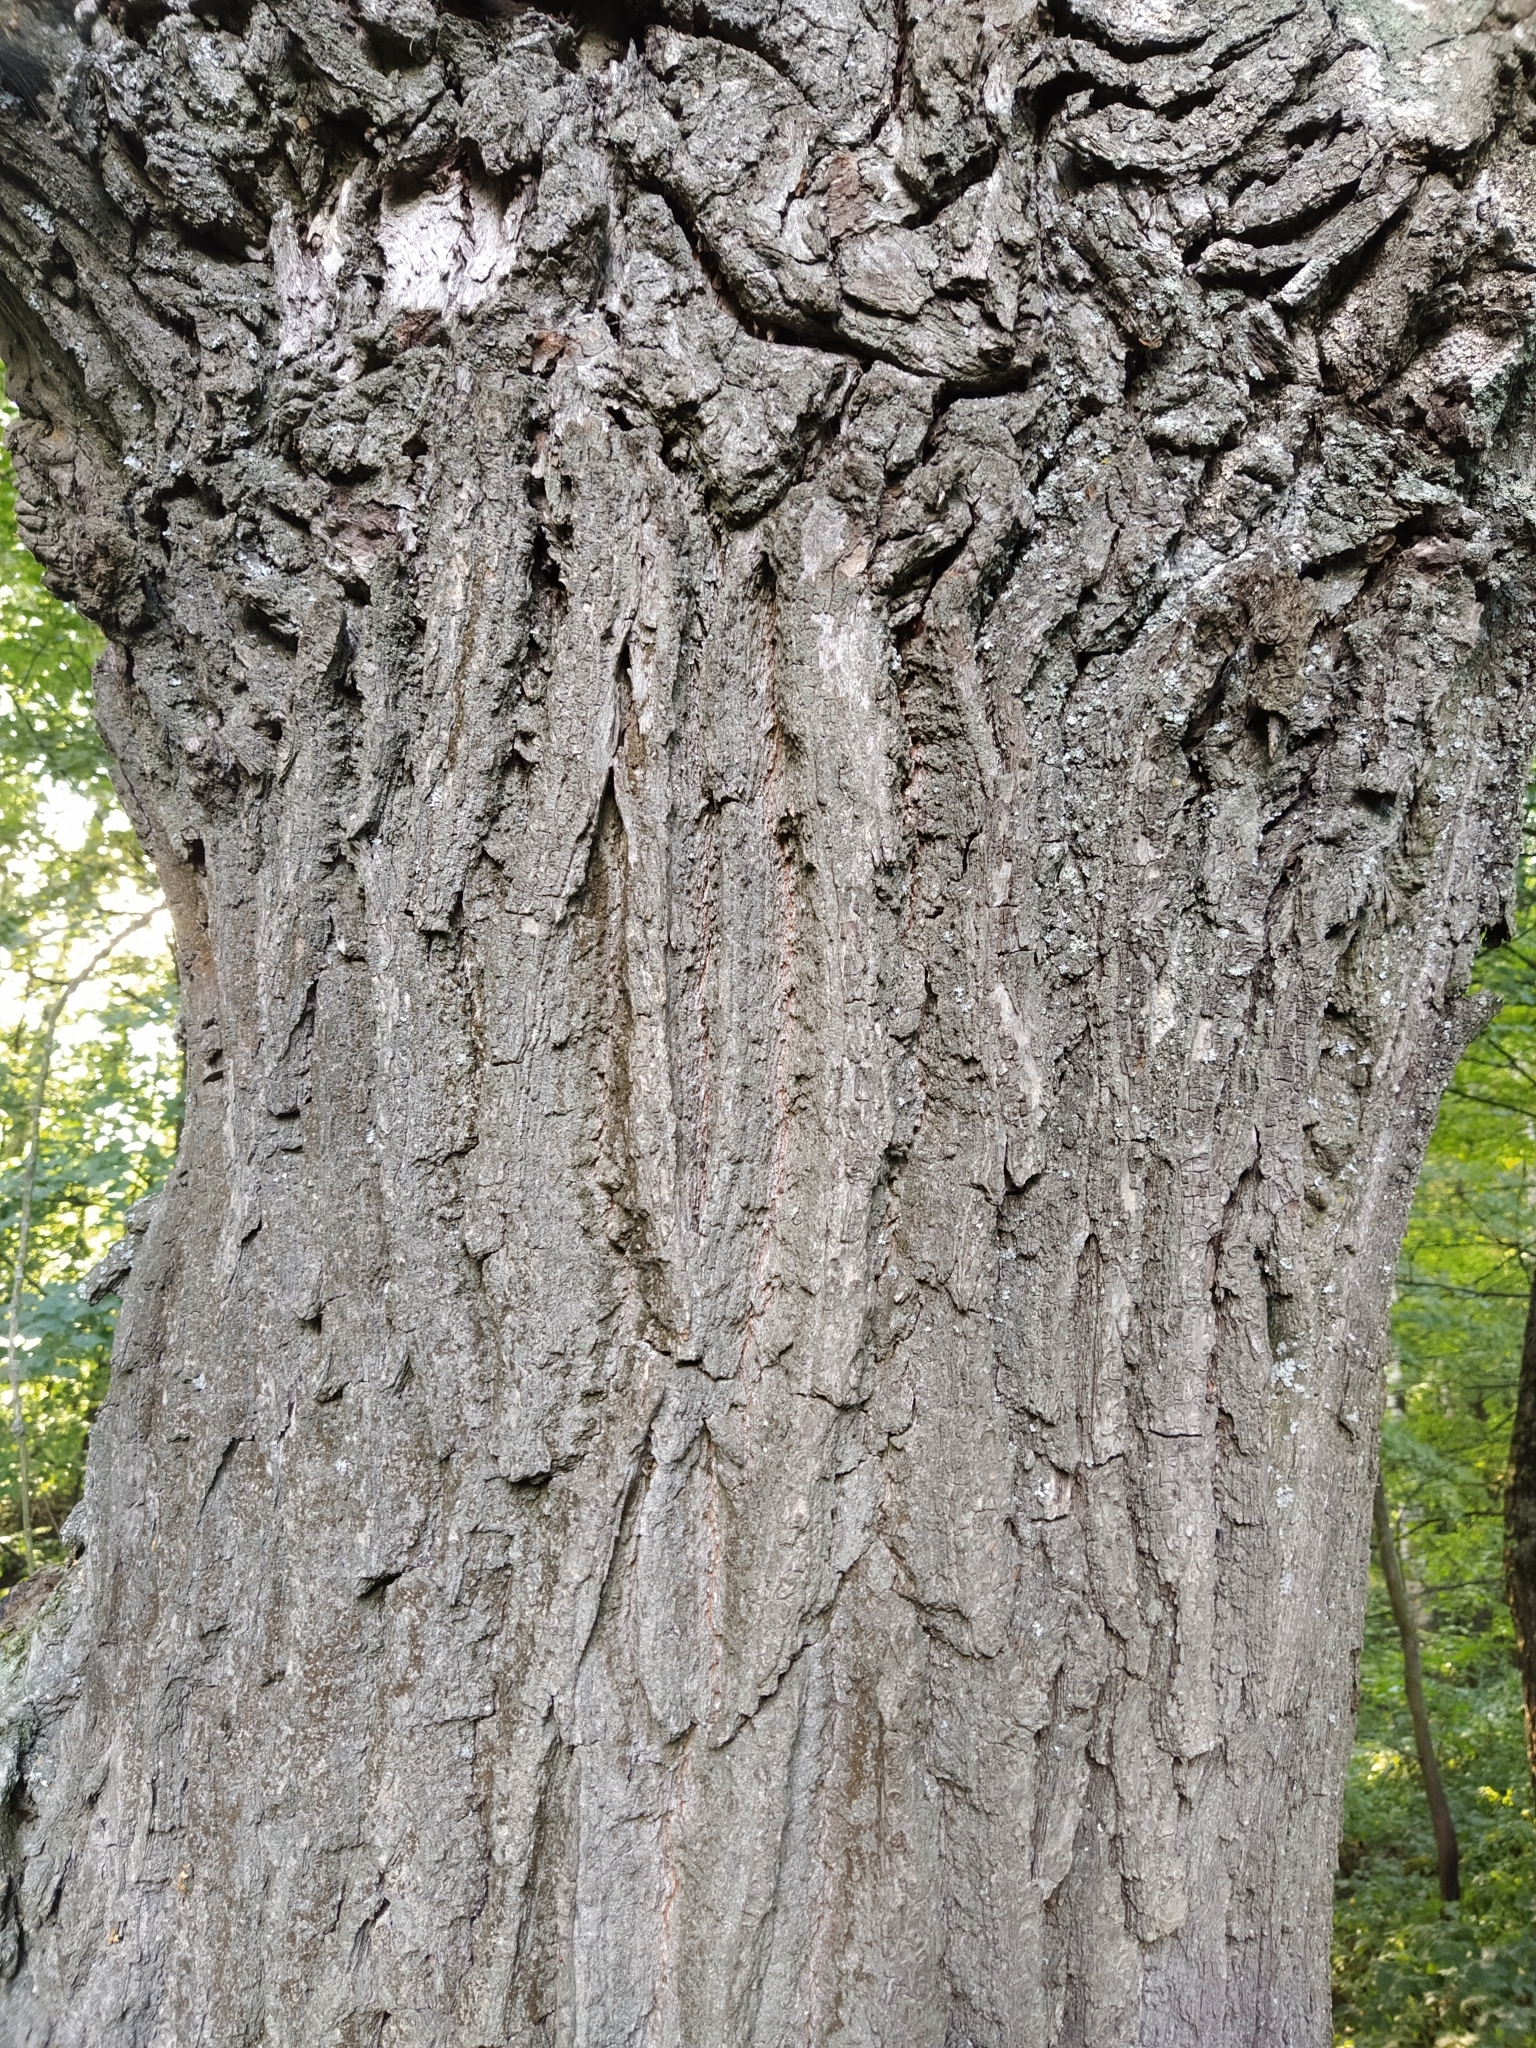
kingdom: Plantae
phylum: Tracheophyta
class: Magnoliopsida
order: Fagales
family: Fagaceae
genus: Quercus
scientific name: Quercus robur
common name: Pedunculate oak
